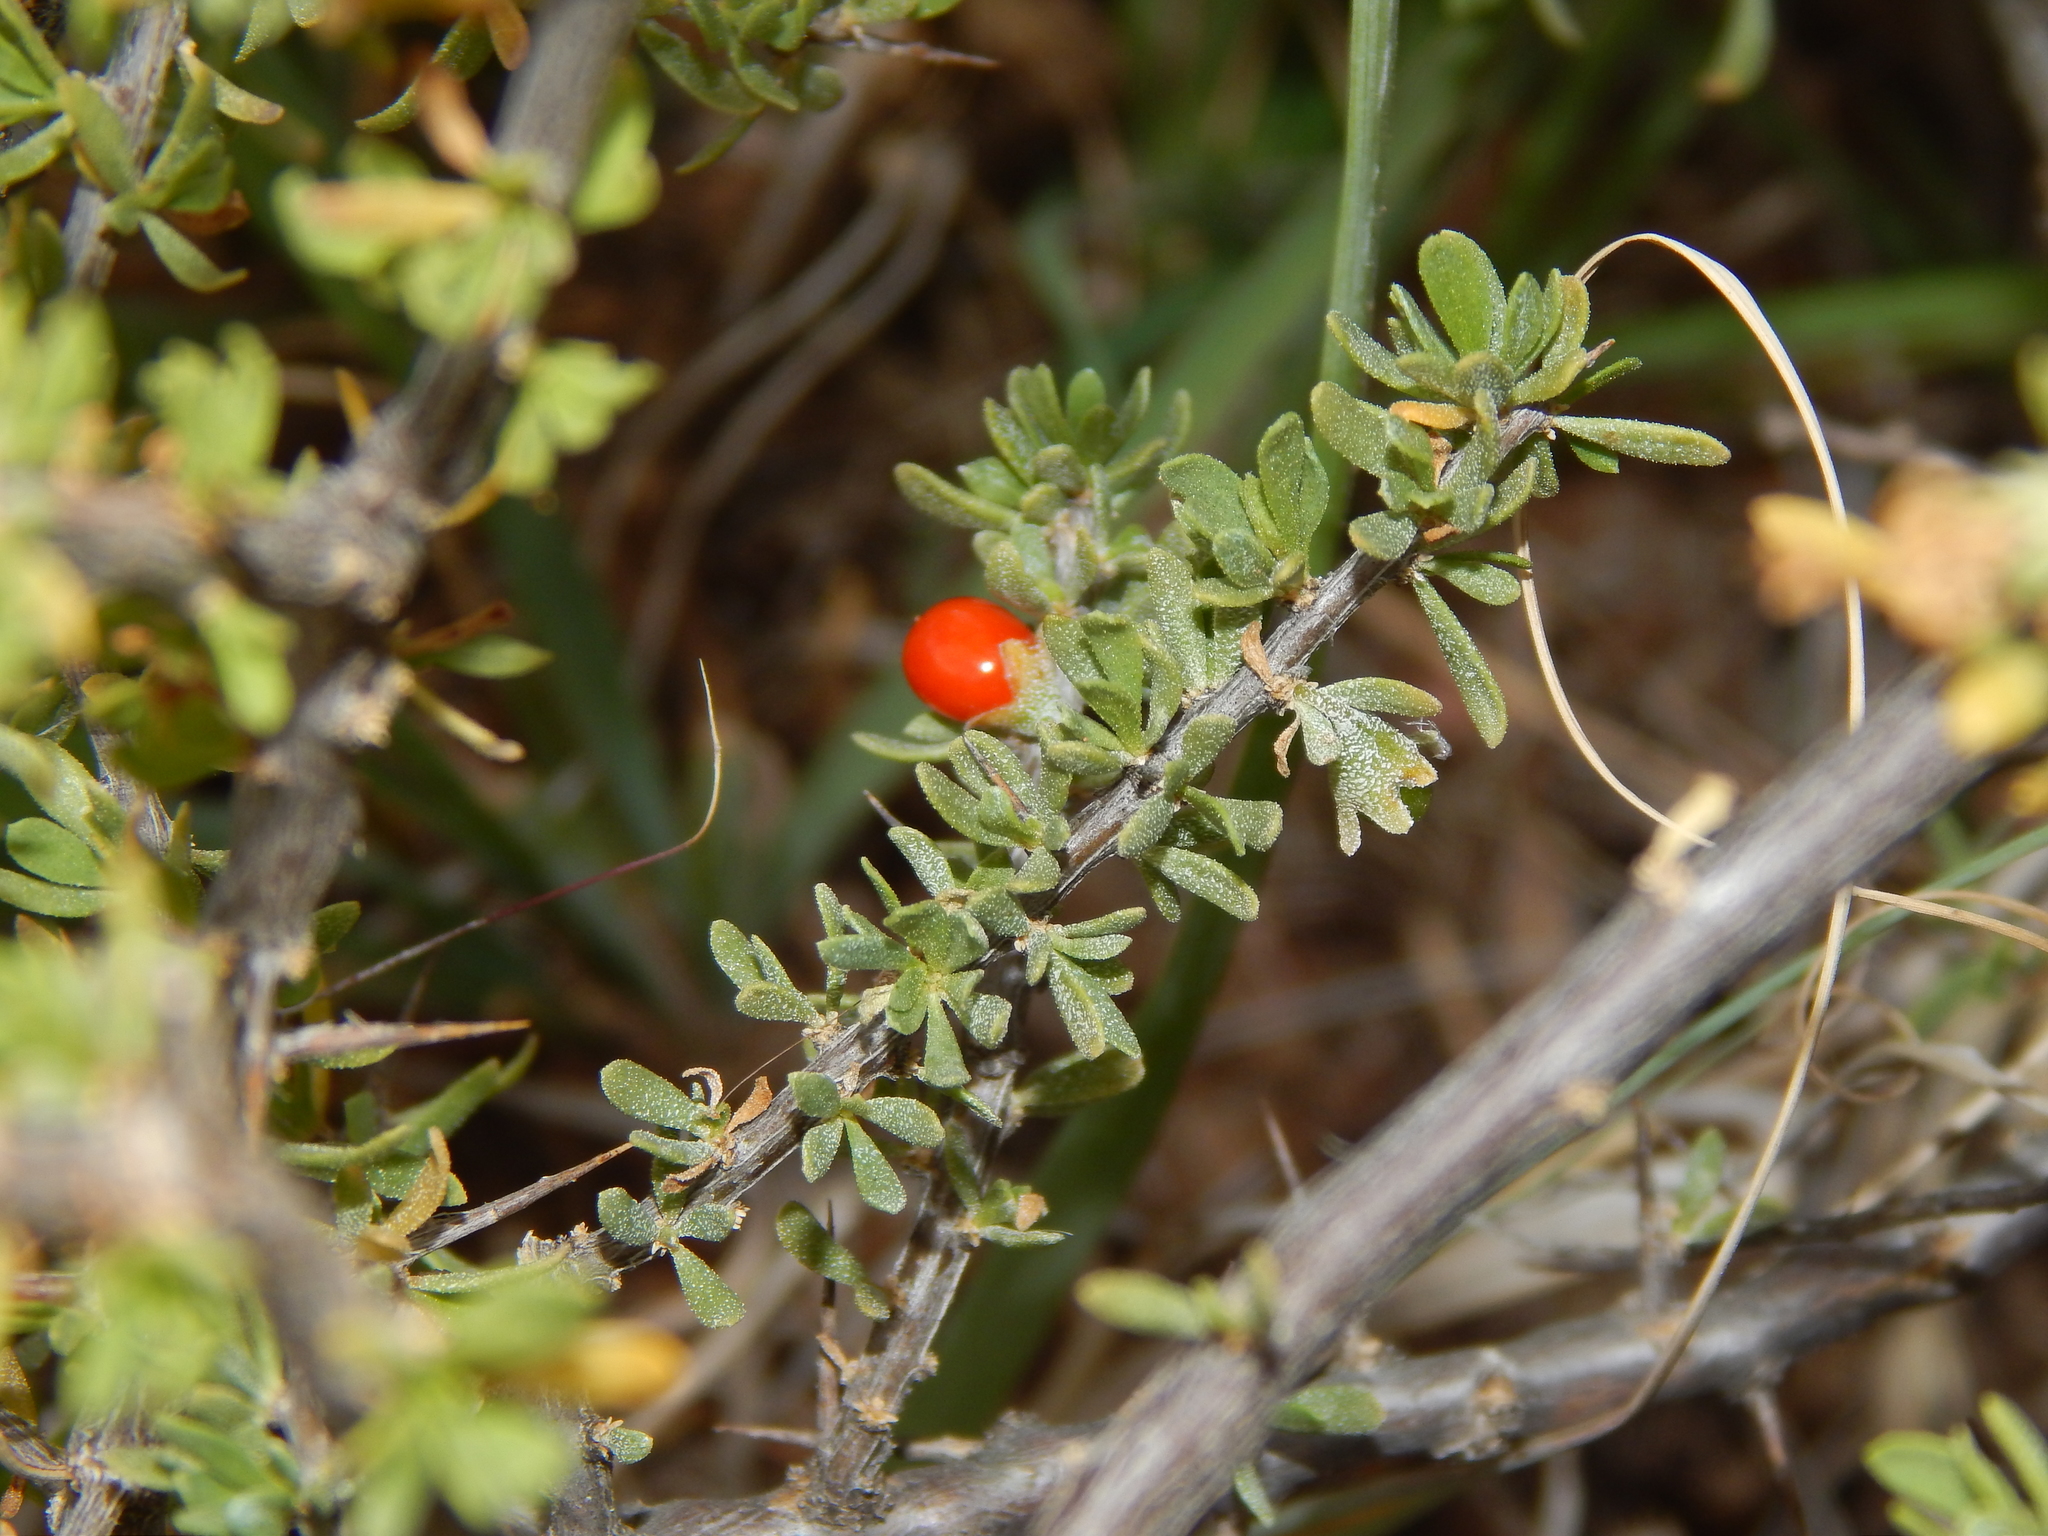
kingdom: Plantae
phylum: Tracheophyta
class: Magnoliopsida
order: Solanales
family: Solanaceae
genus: Lycium
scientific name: Lycium cinereum
